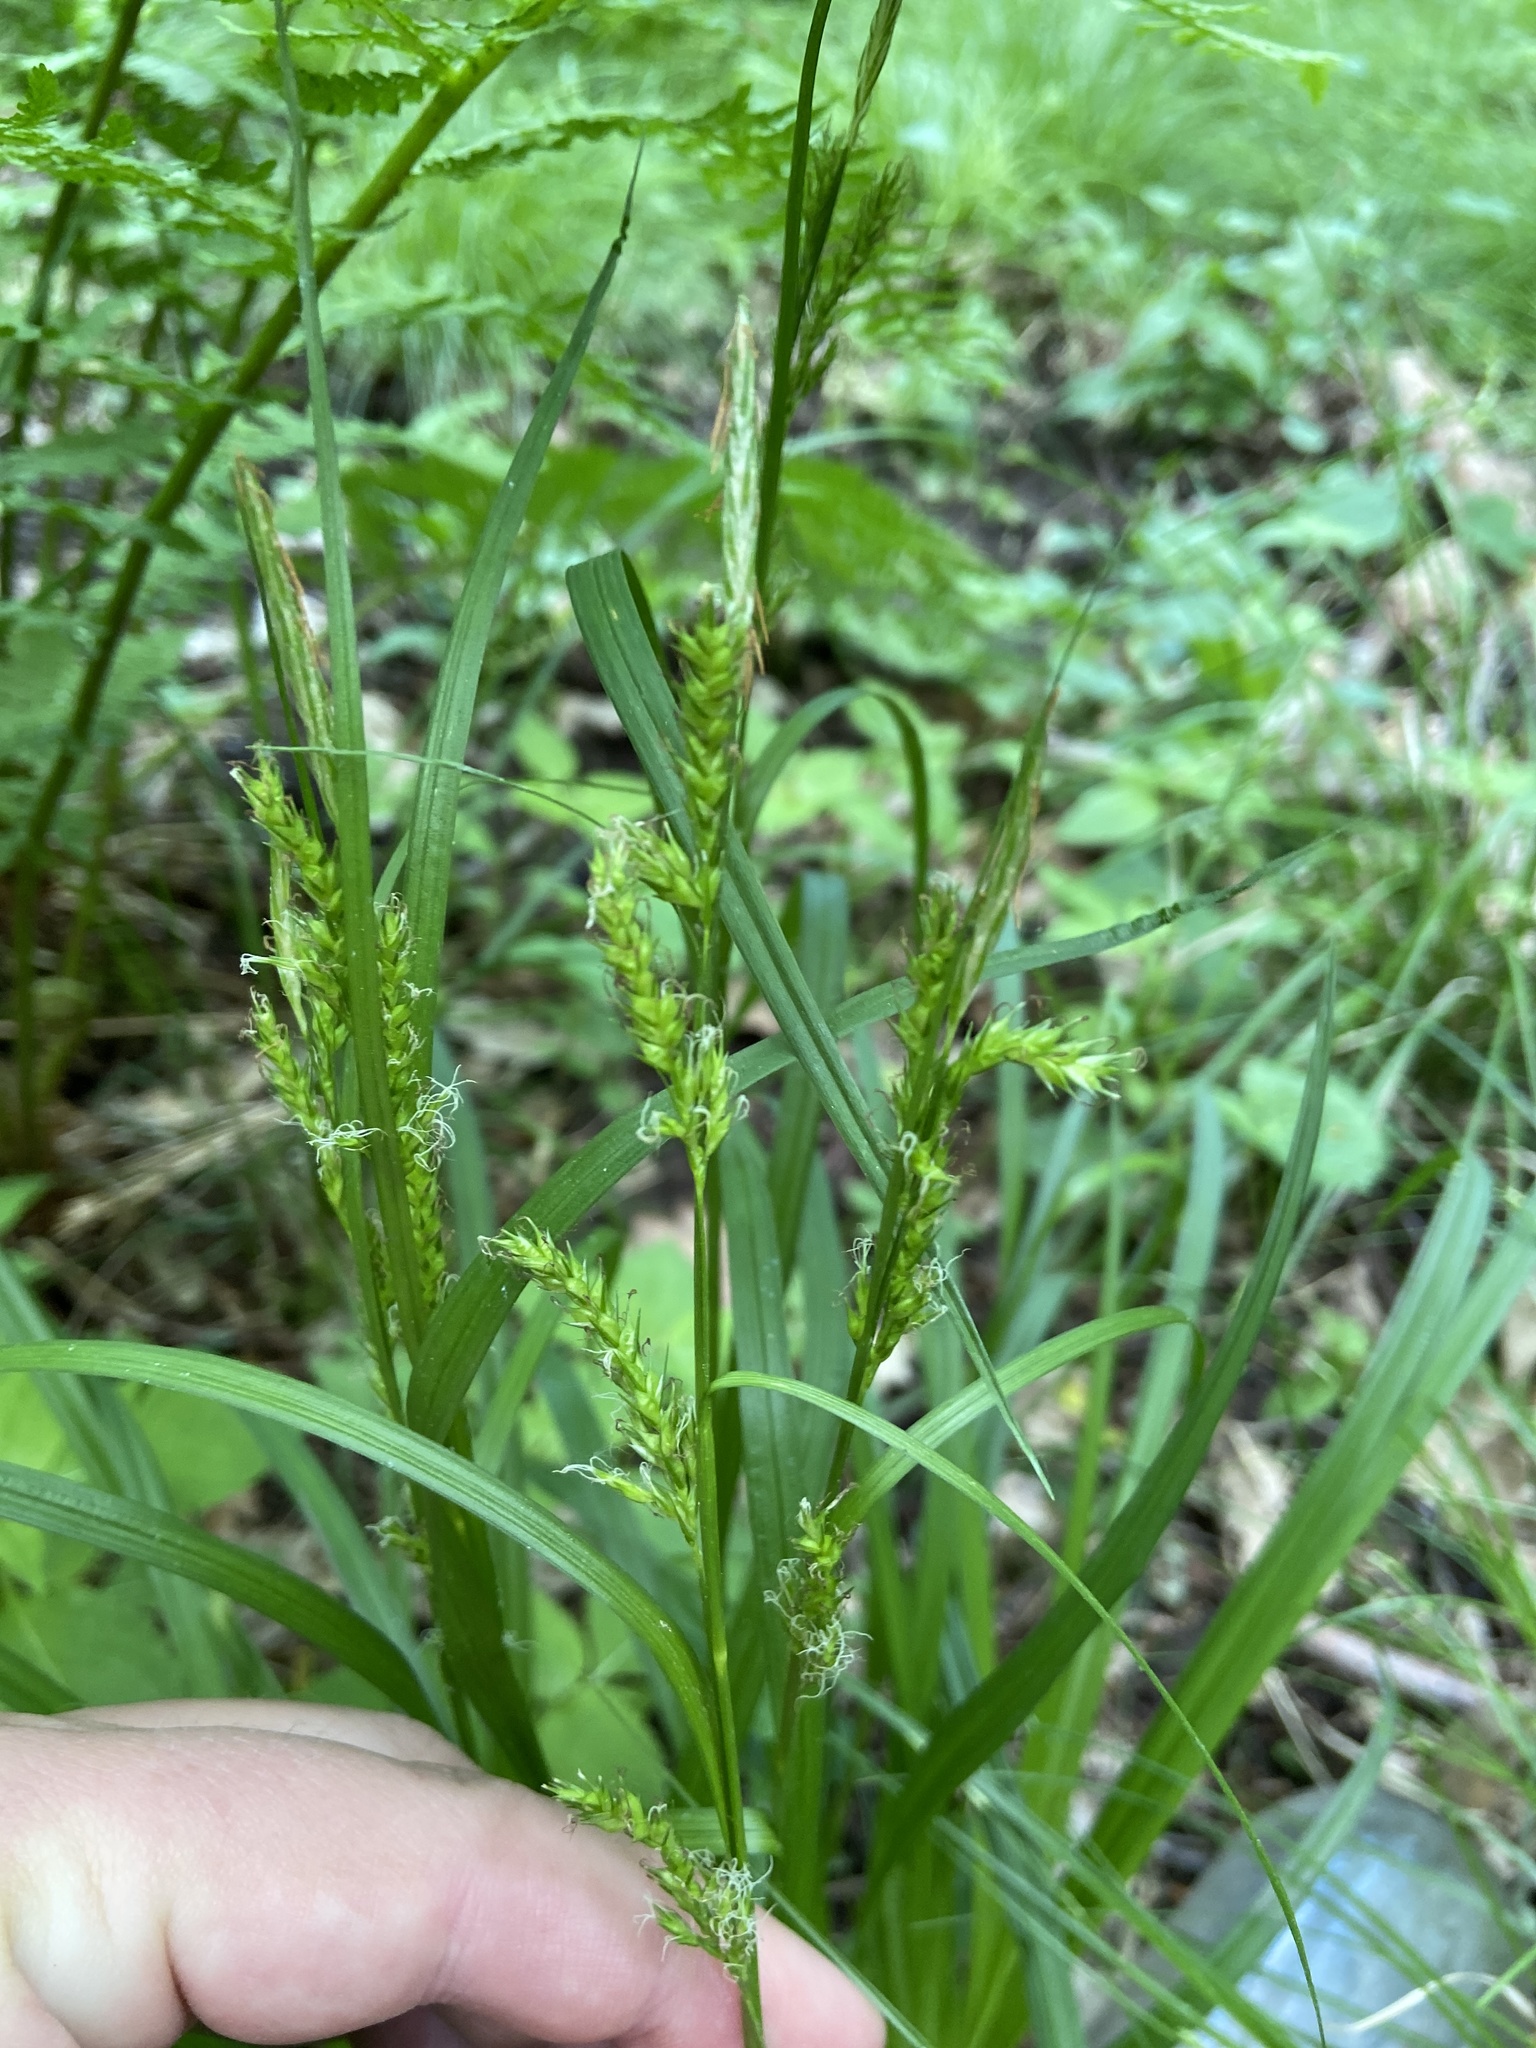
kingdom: Plantae
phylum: Tracheophyta
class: Liliopsida
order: Poales
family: Cyperaceae
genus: Carex
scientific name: Carex sylvatica
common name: Wood-sedge
